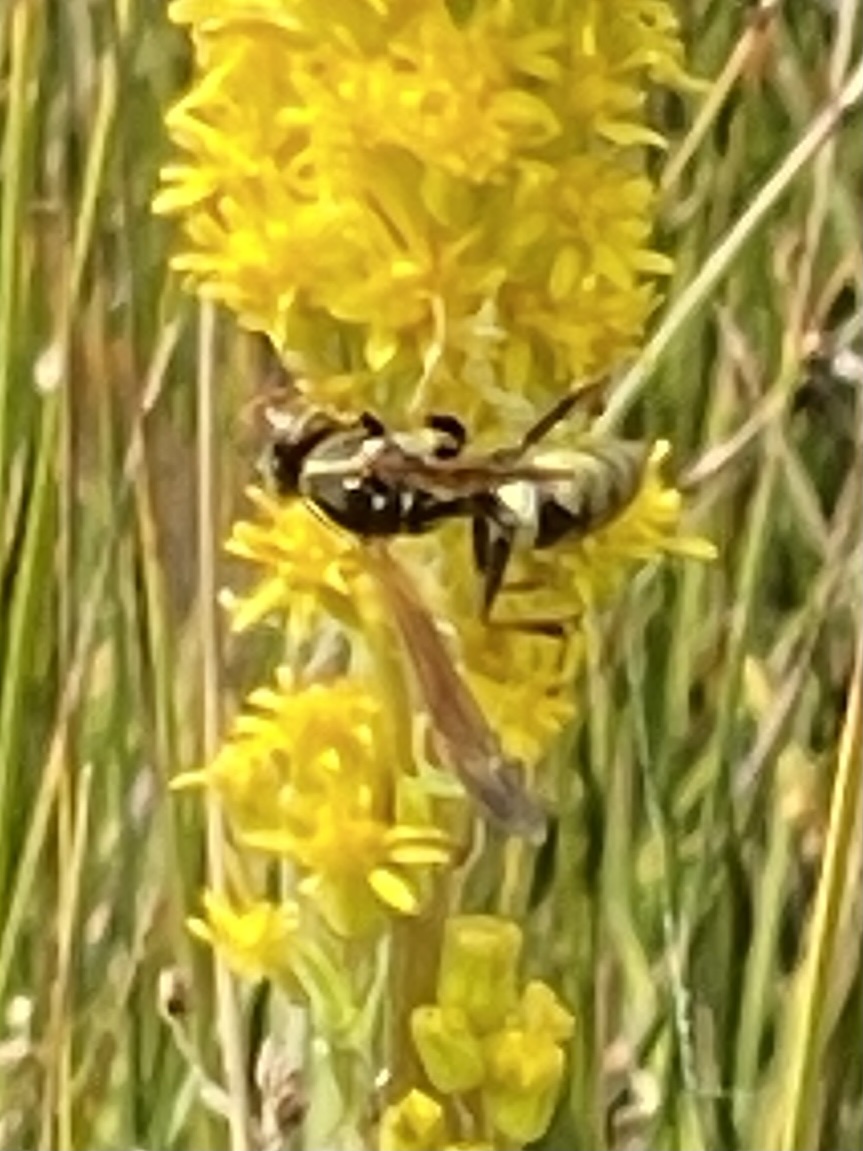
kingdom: Animalia
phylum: Arthropoda
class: Insecta
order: Hymenoptera
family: Eumenidae
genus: Polistes
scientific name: Polistes aurifer
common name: Paper wasp
